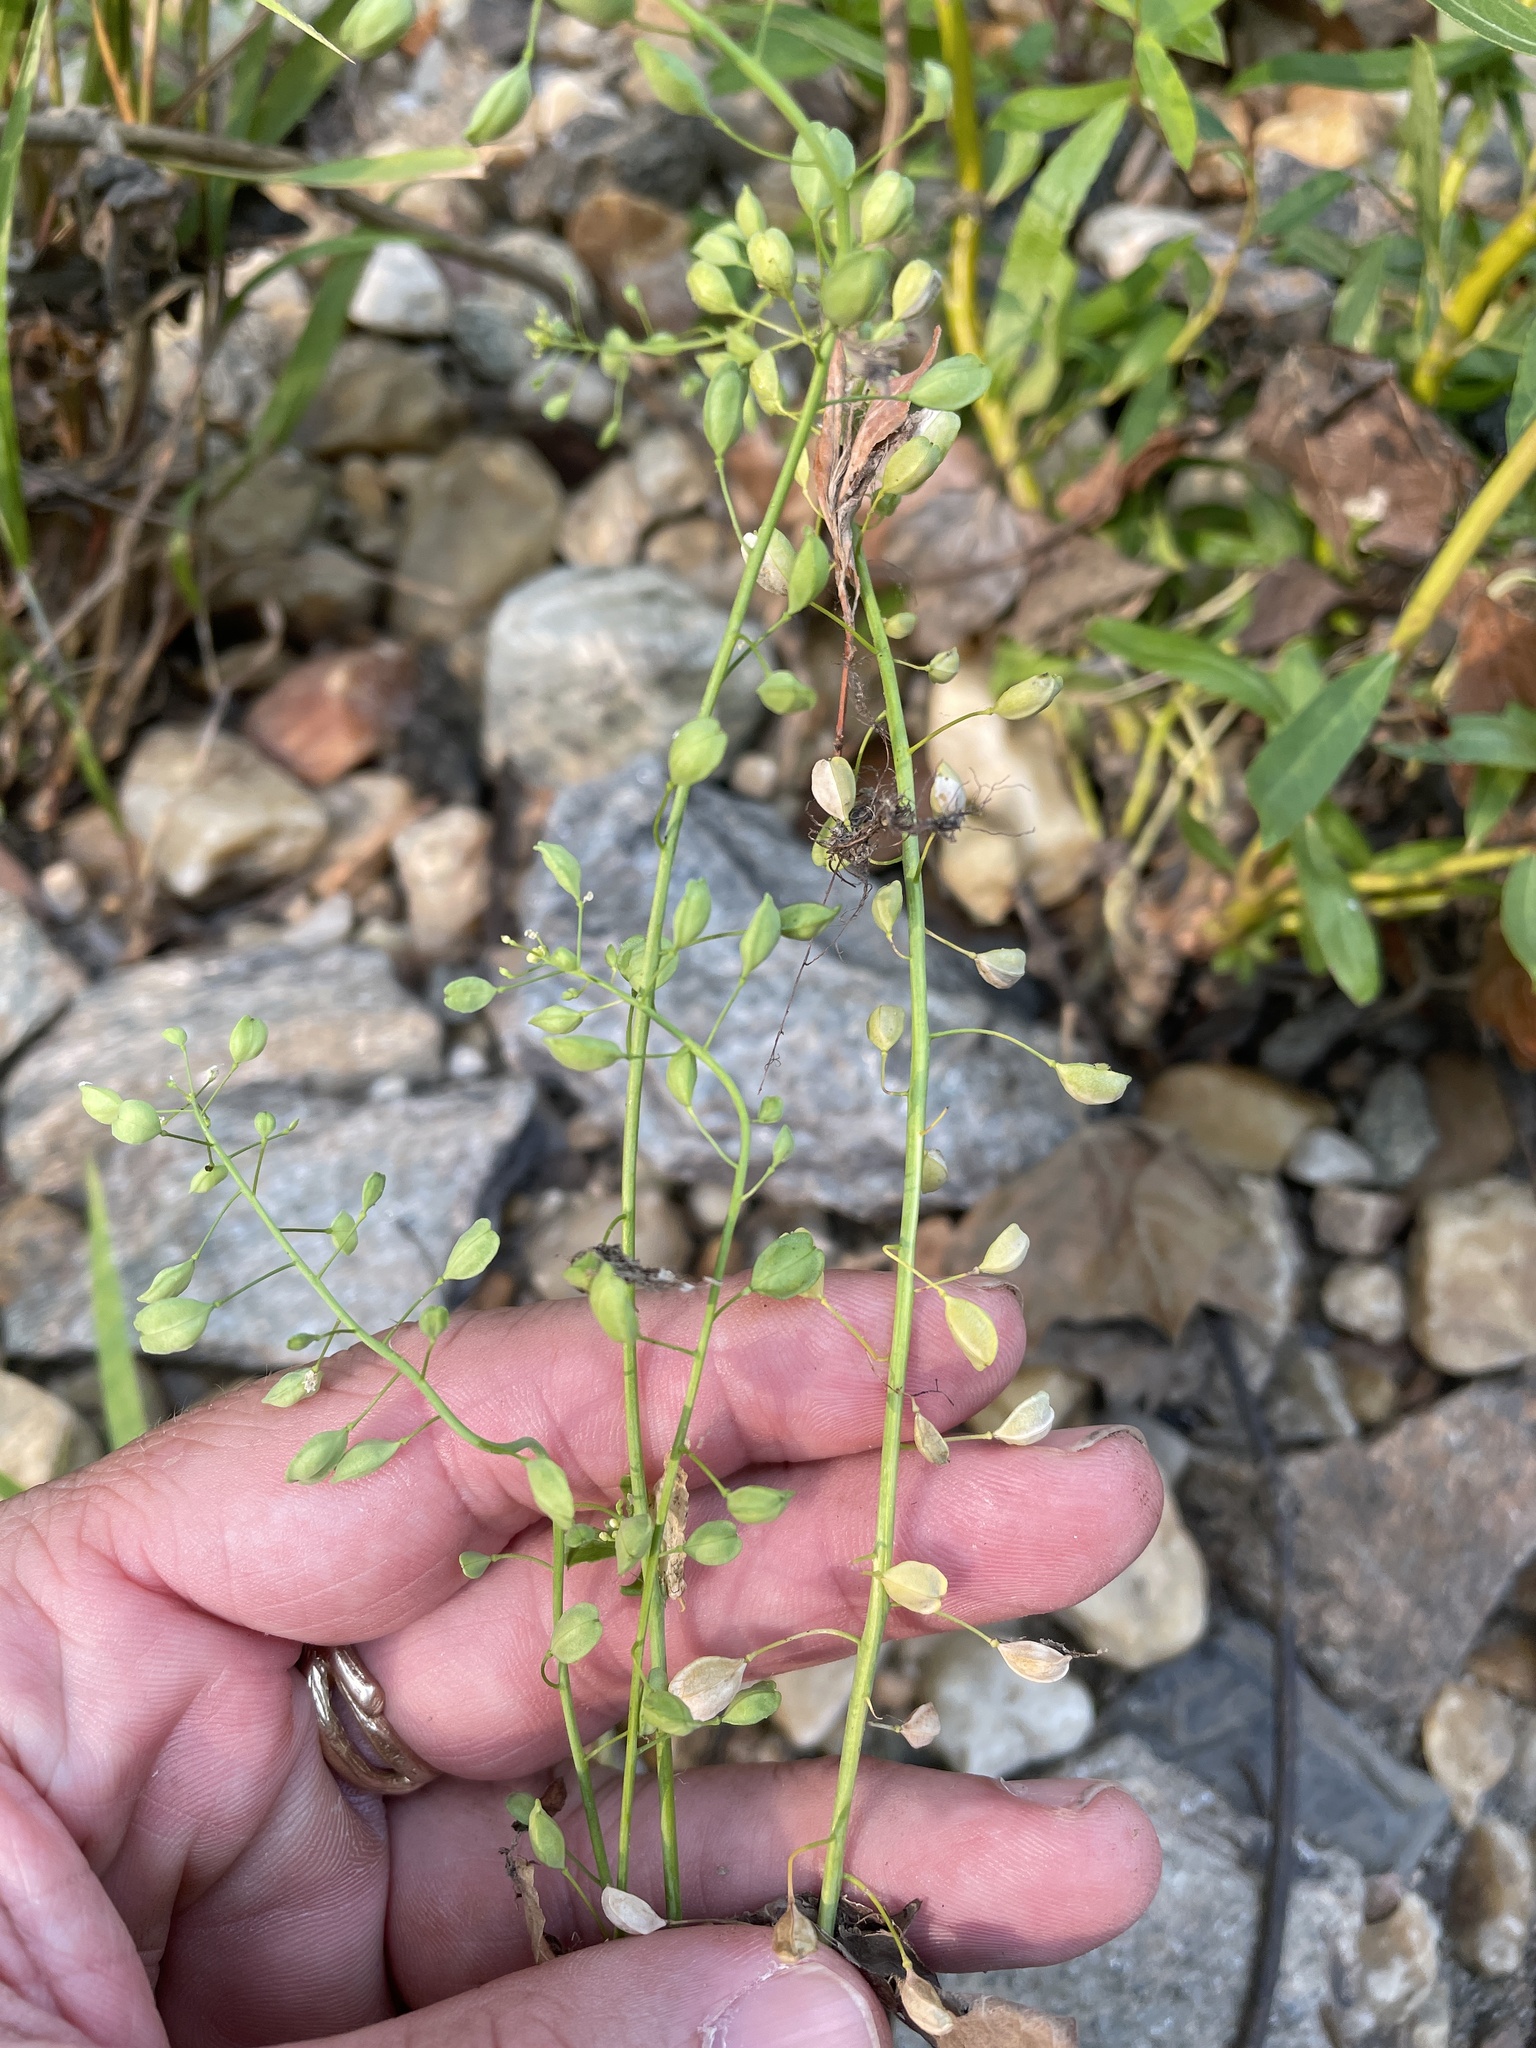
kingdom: Plantae
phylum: Tracheophyta
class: Magnoliopsida
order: Brassicales
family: Brassicaceae
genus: Mummenhoffia
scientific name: Mummenhoffia alliacea
